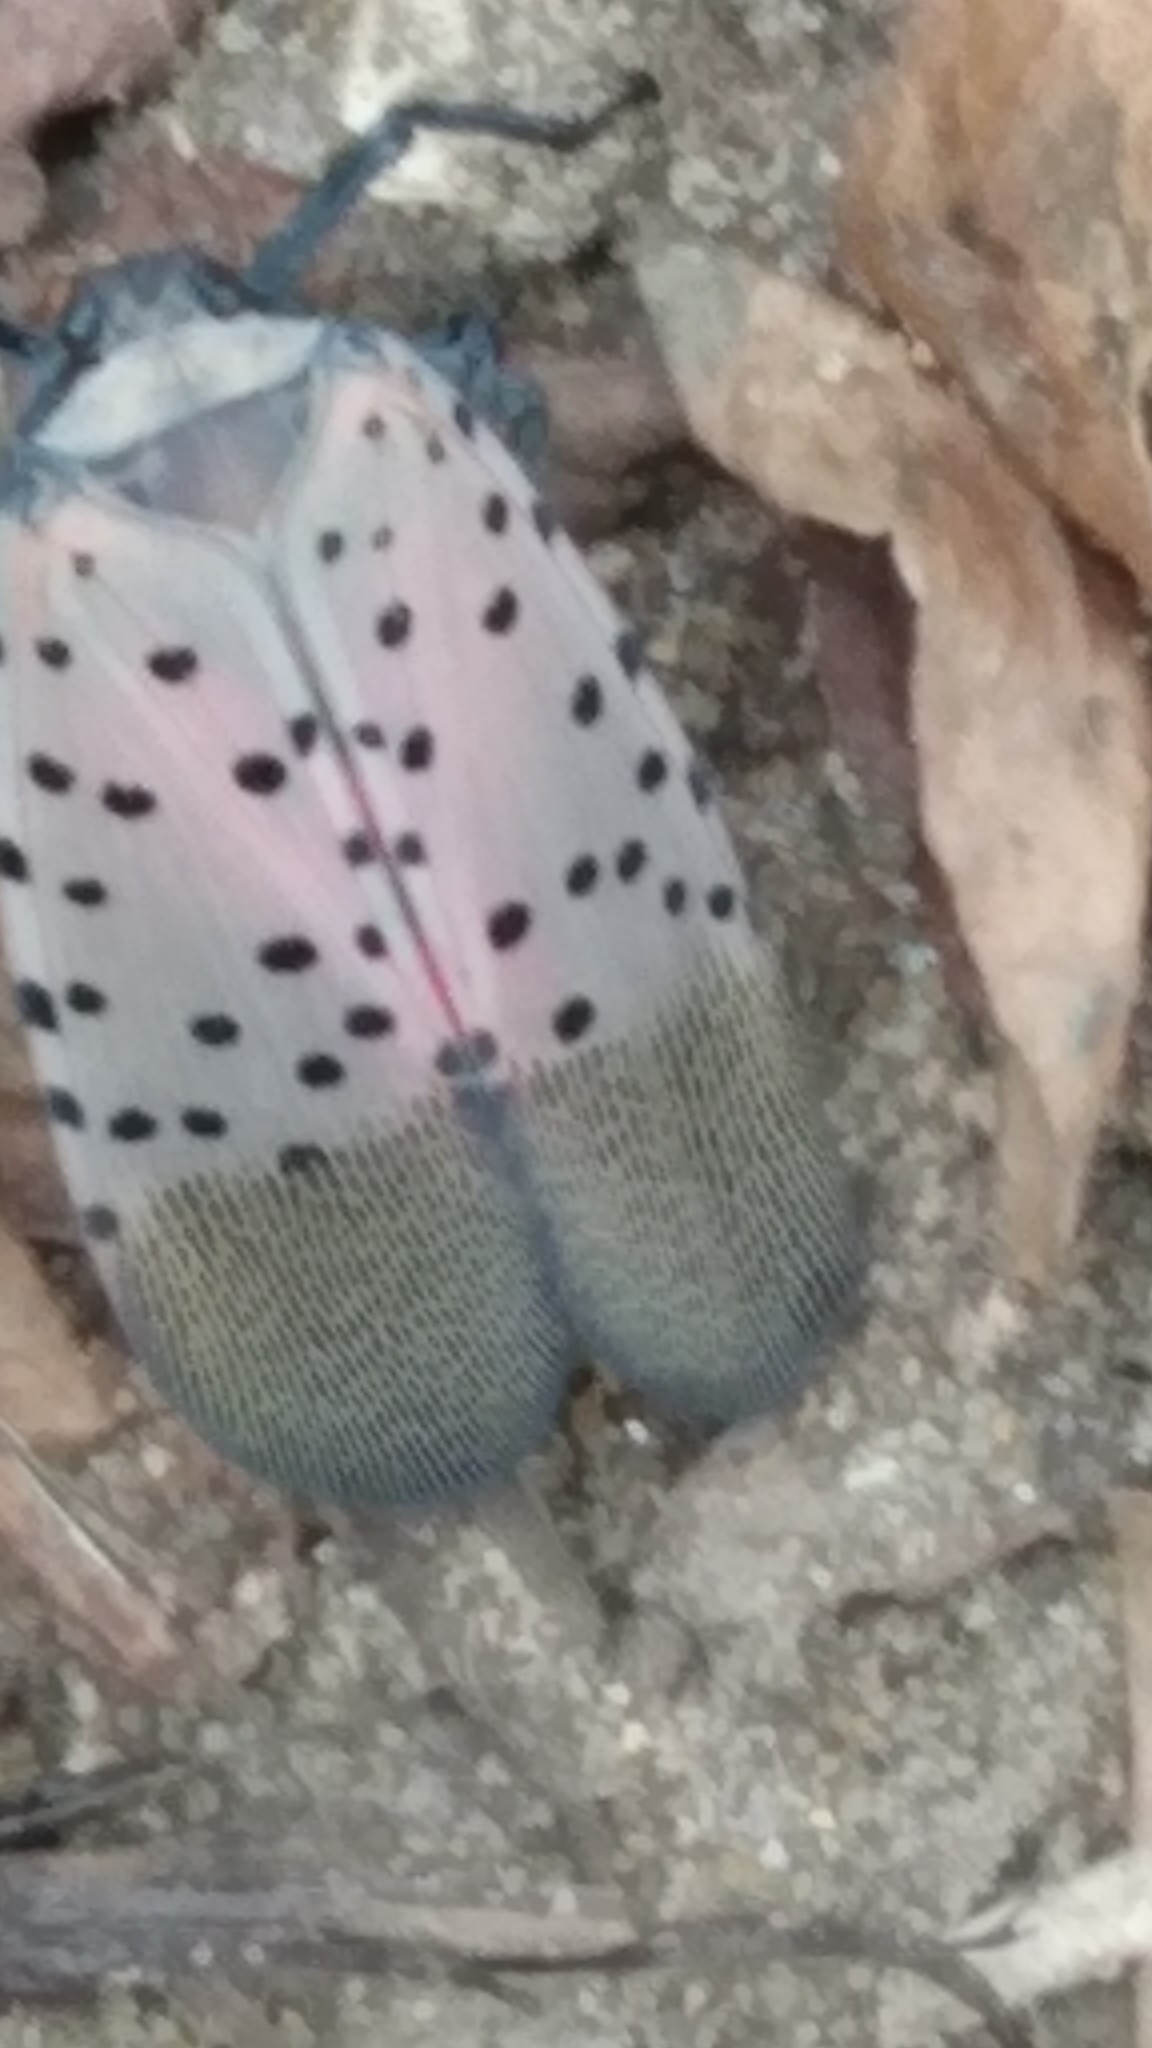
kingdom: Animalia
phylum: Arthropoda
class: Insecta
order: Hemiptera
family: Fulgoridae
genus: Lycorma
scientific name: Lycorma delicatula
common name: Spotted lanternfly
